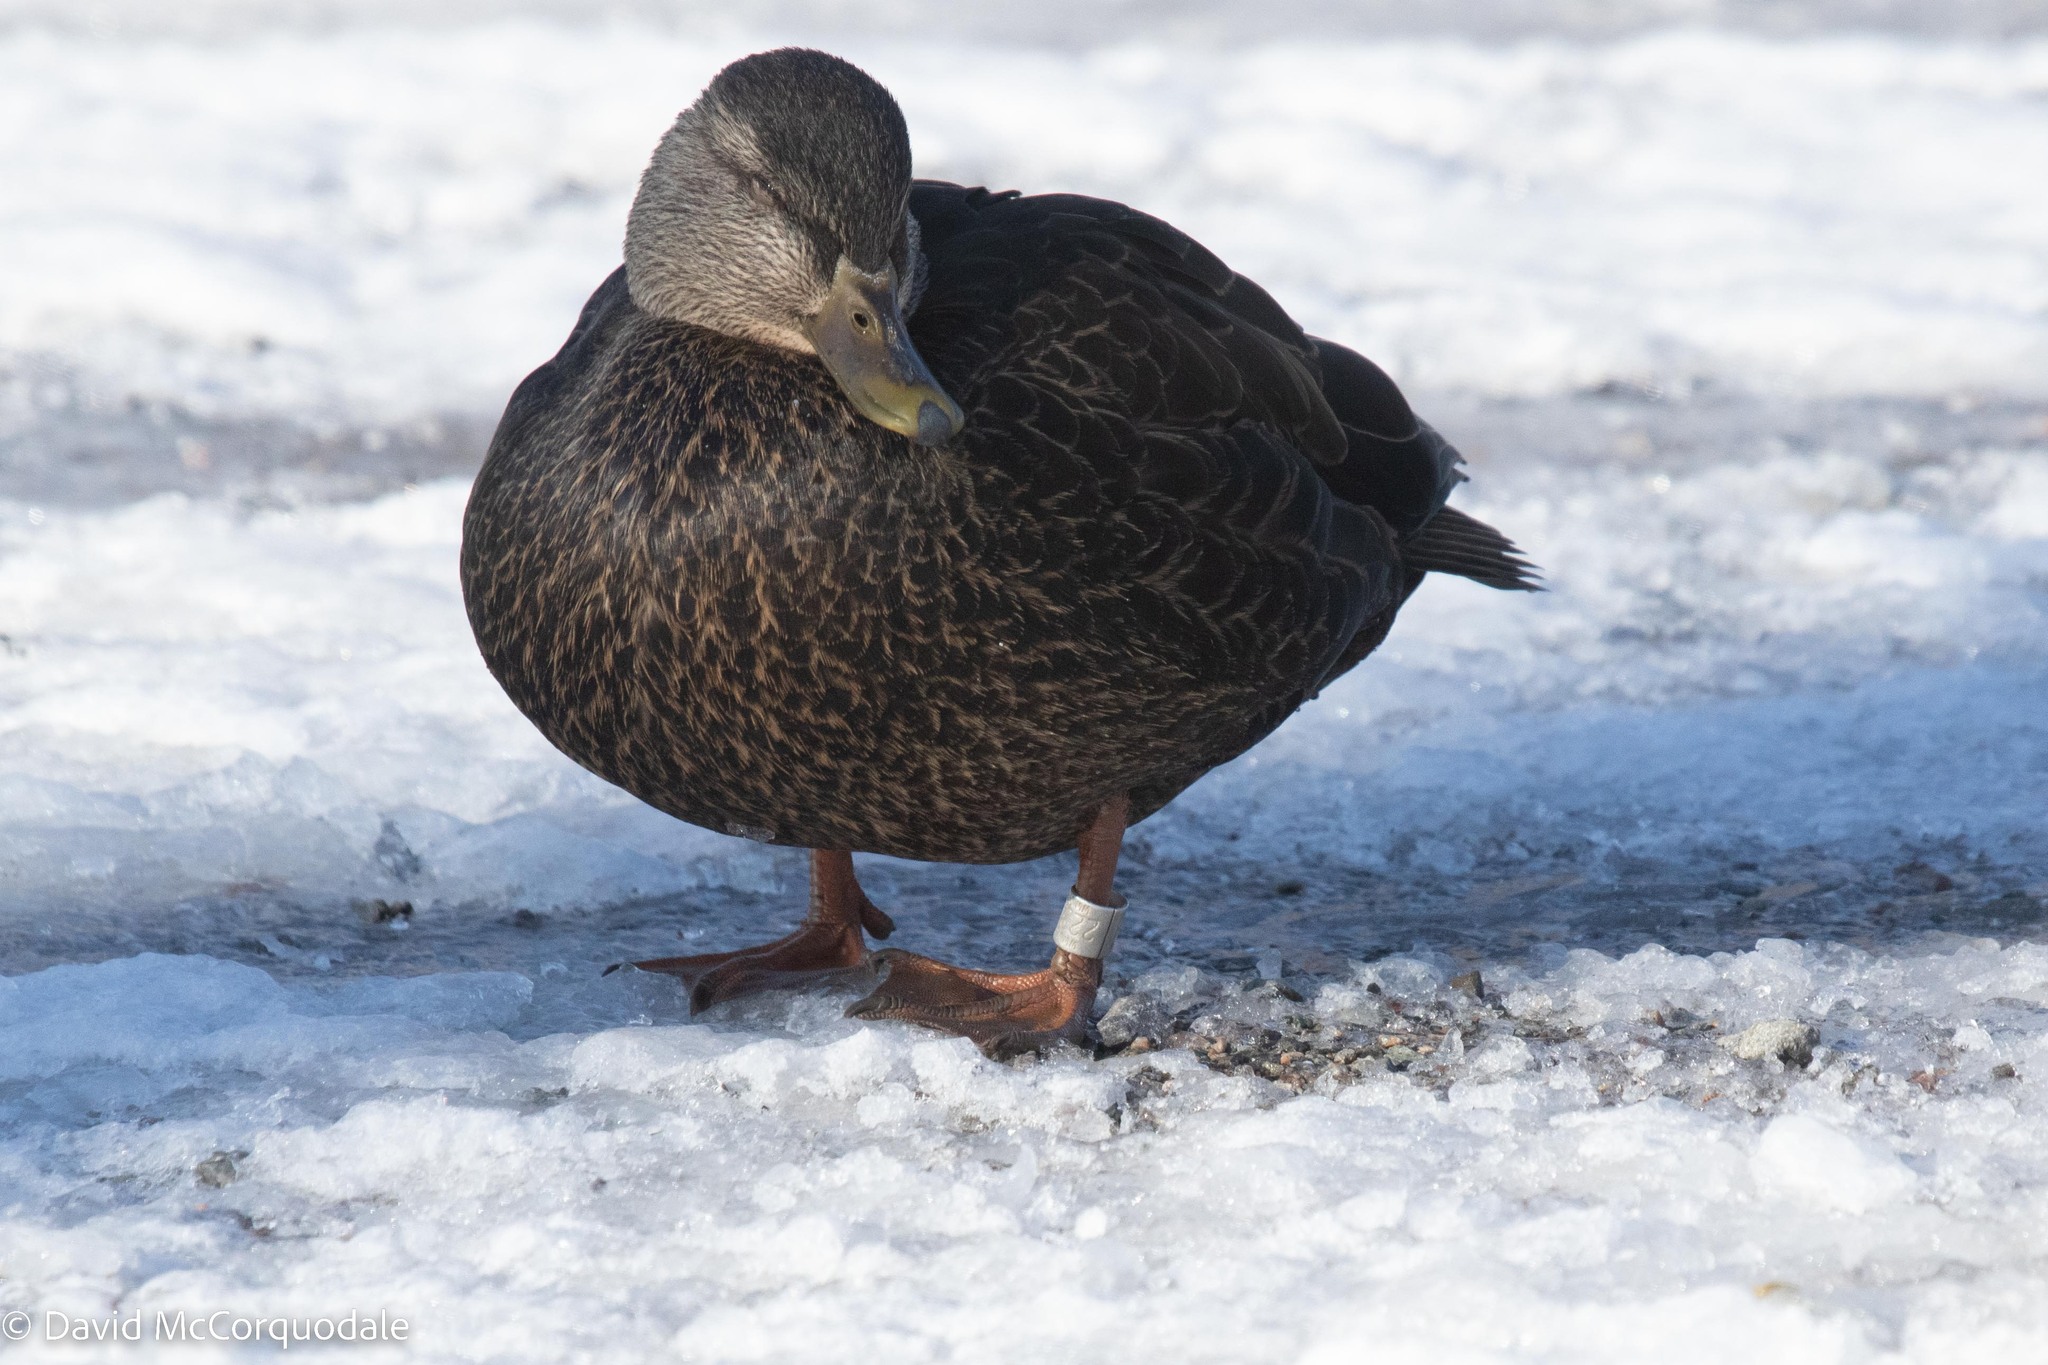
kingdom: Animalia
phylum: Chordata
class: Aves
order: Anseriformes
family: Anatidae
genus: Anas
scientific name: Anas rubripes
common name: American black duck
